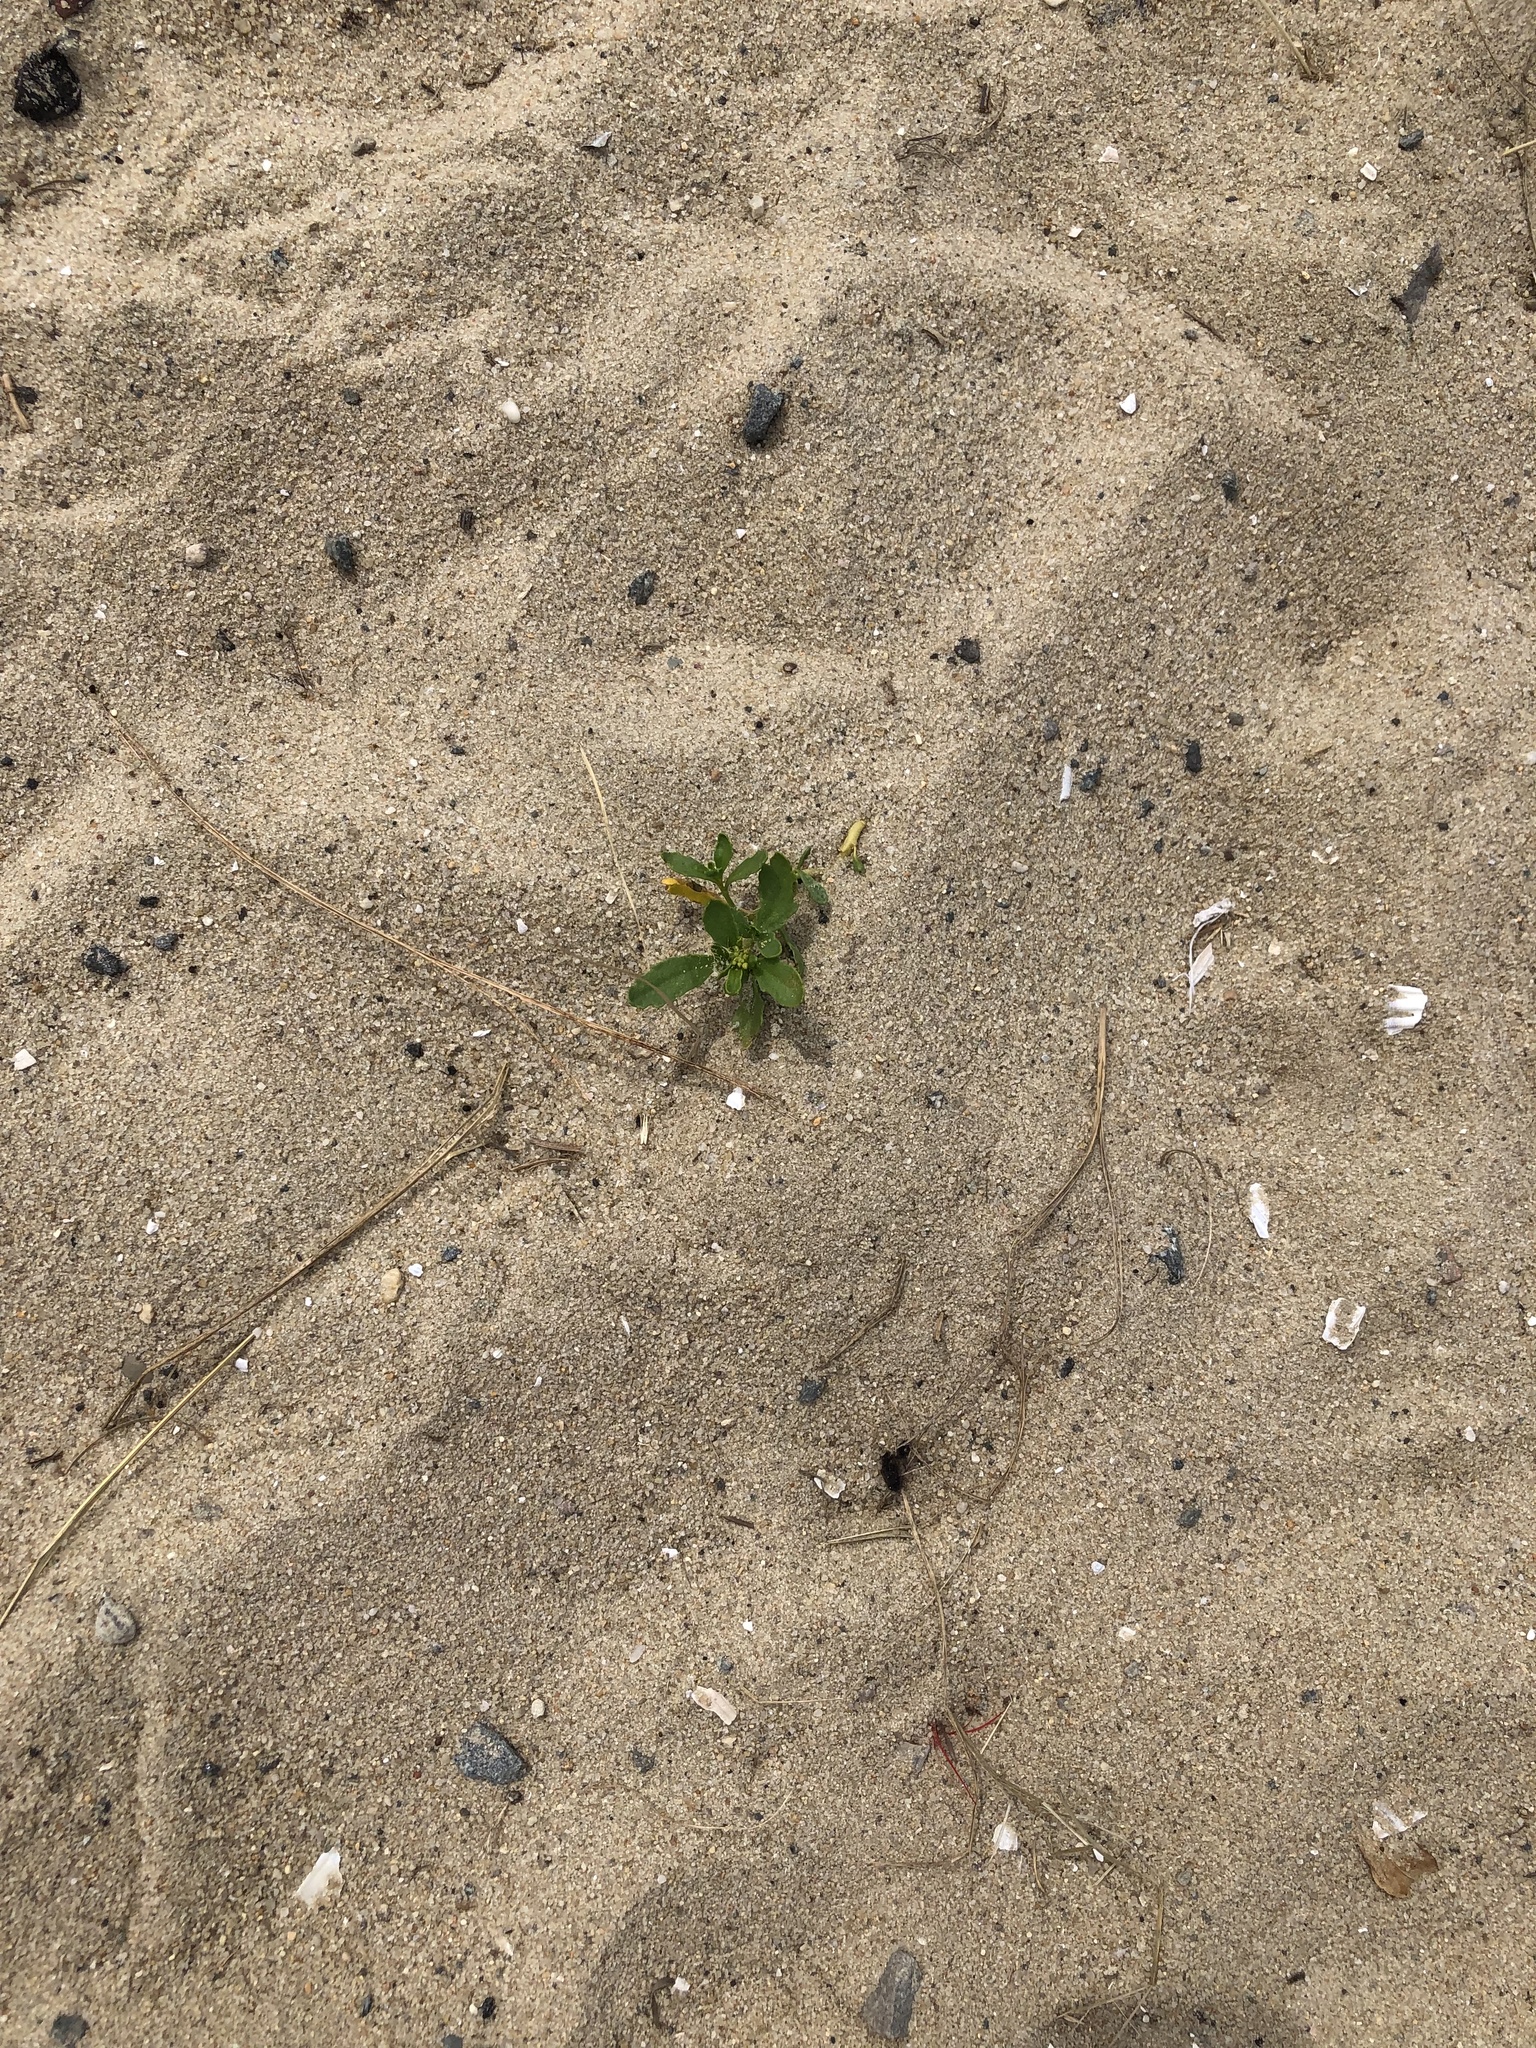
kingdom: Plantae
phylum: Tracheophyta
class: Magnoliopsida
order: Brassicales
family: Brassicaceae
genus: Cakile
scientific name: Cakile edentula
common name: American sea rocket
